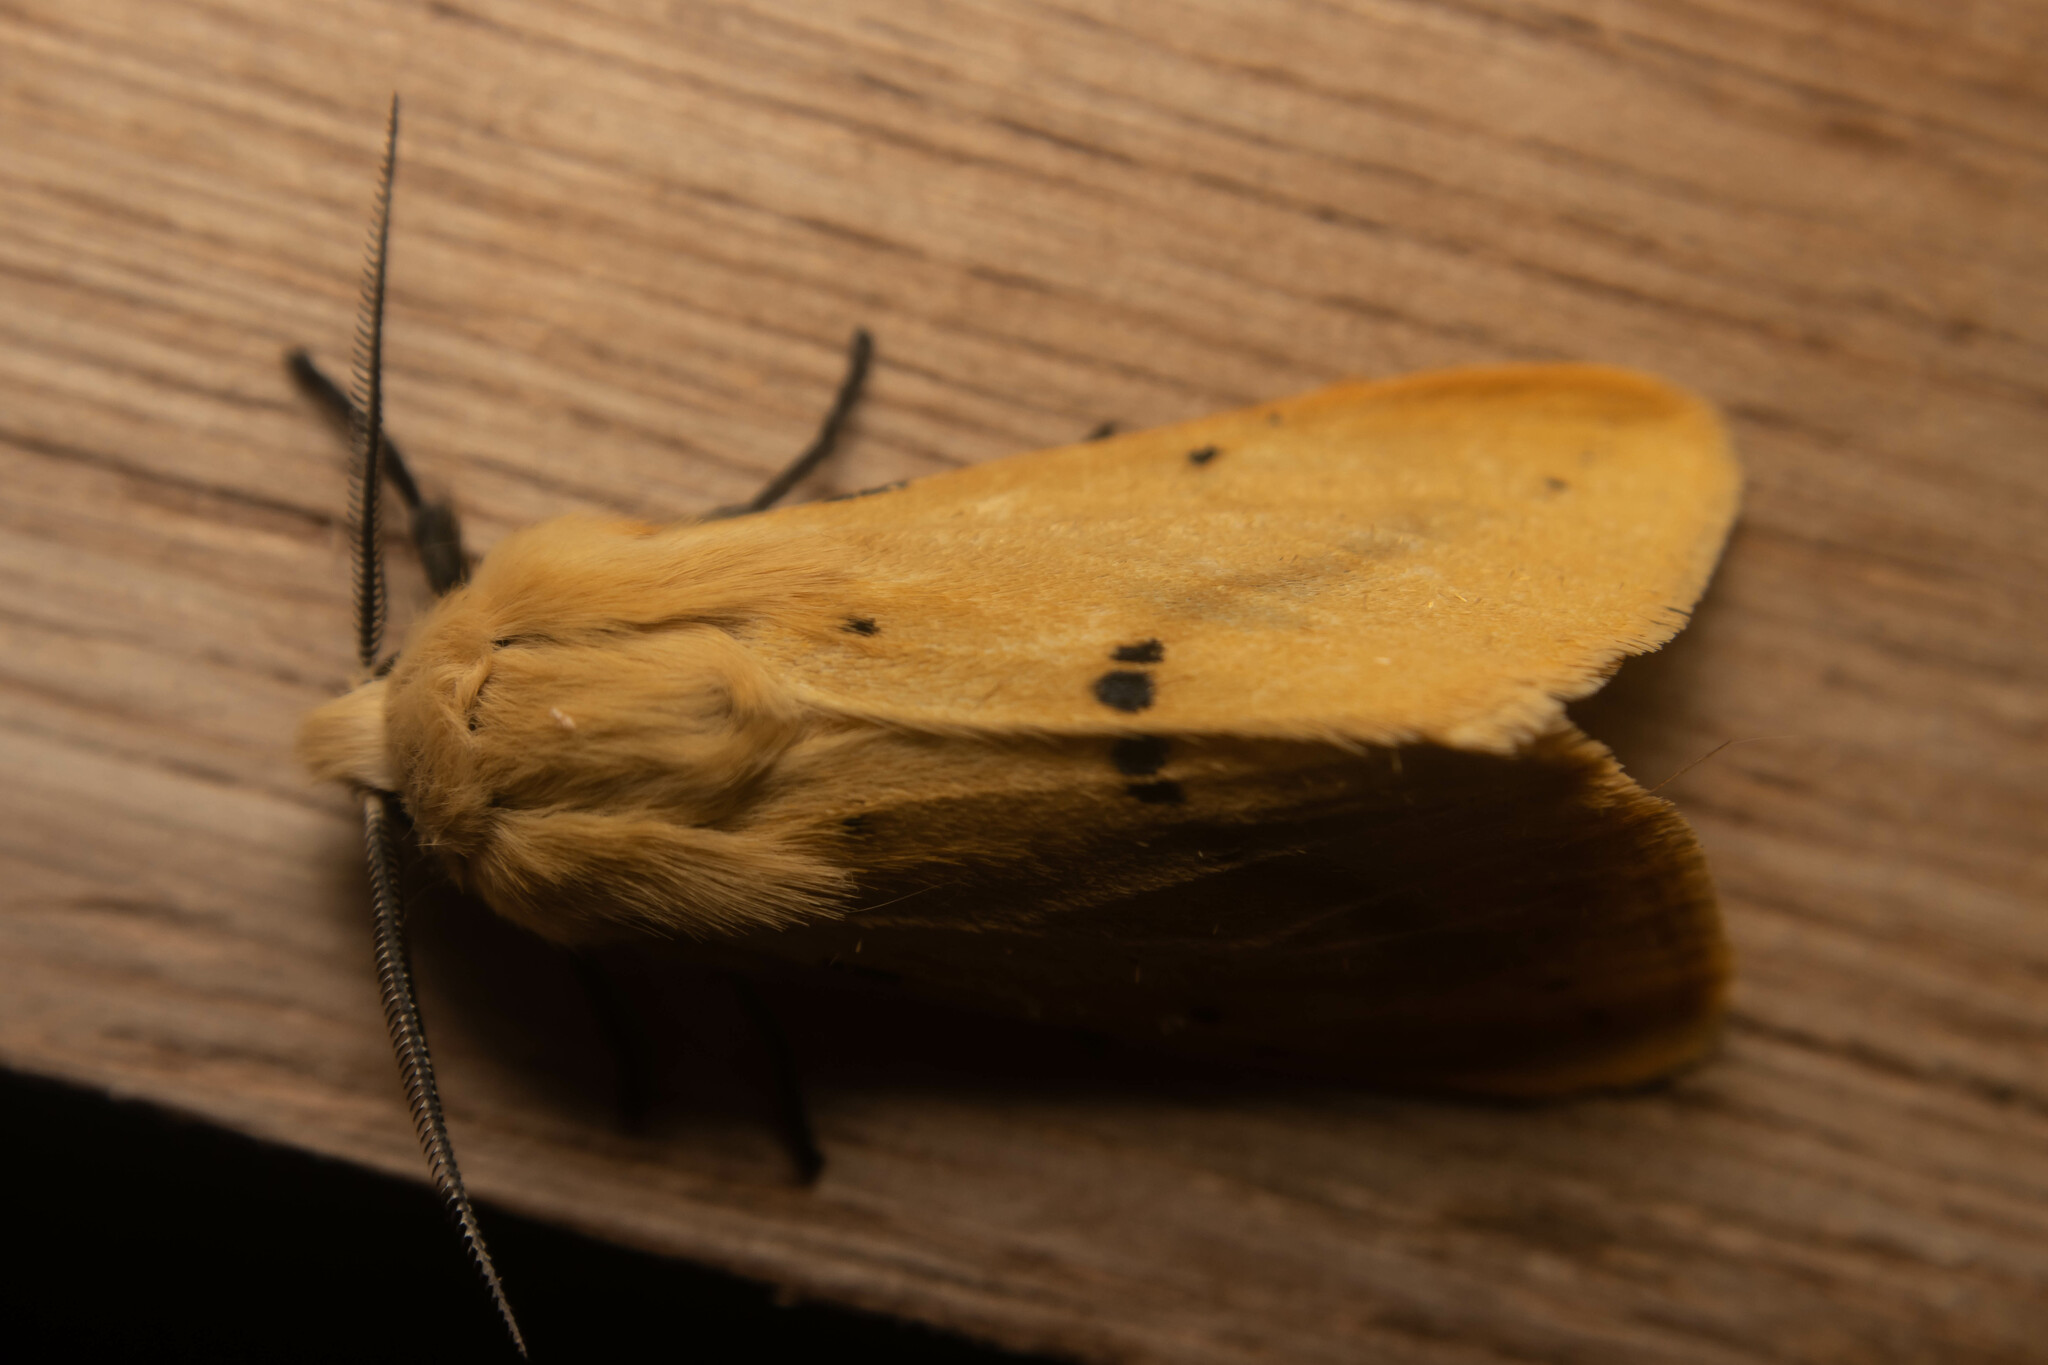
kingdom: Animalia
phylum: Arthropoda
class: Insecta
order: Lepidoptera
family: Erebidae
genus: Spilarctia
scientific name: Spilarctia lutea
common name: Buff ermine
